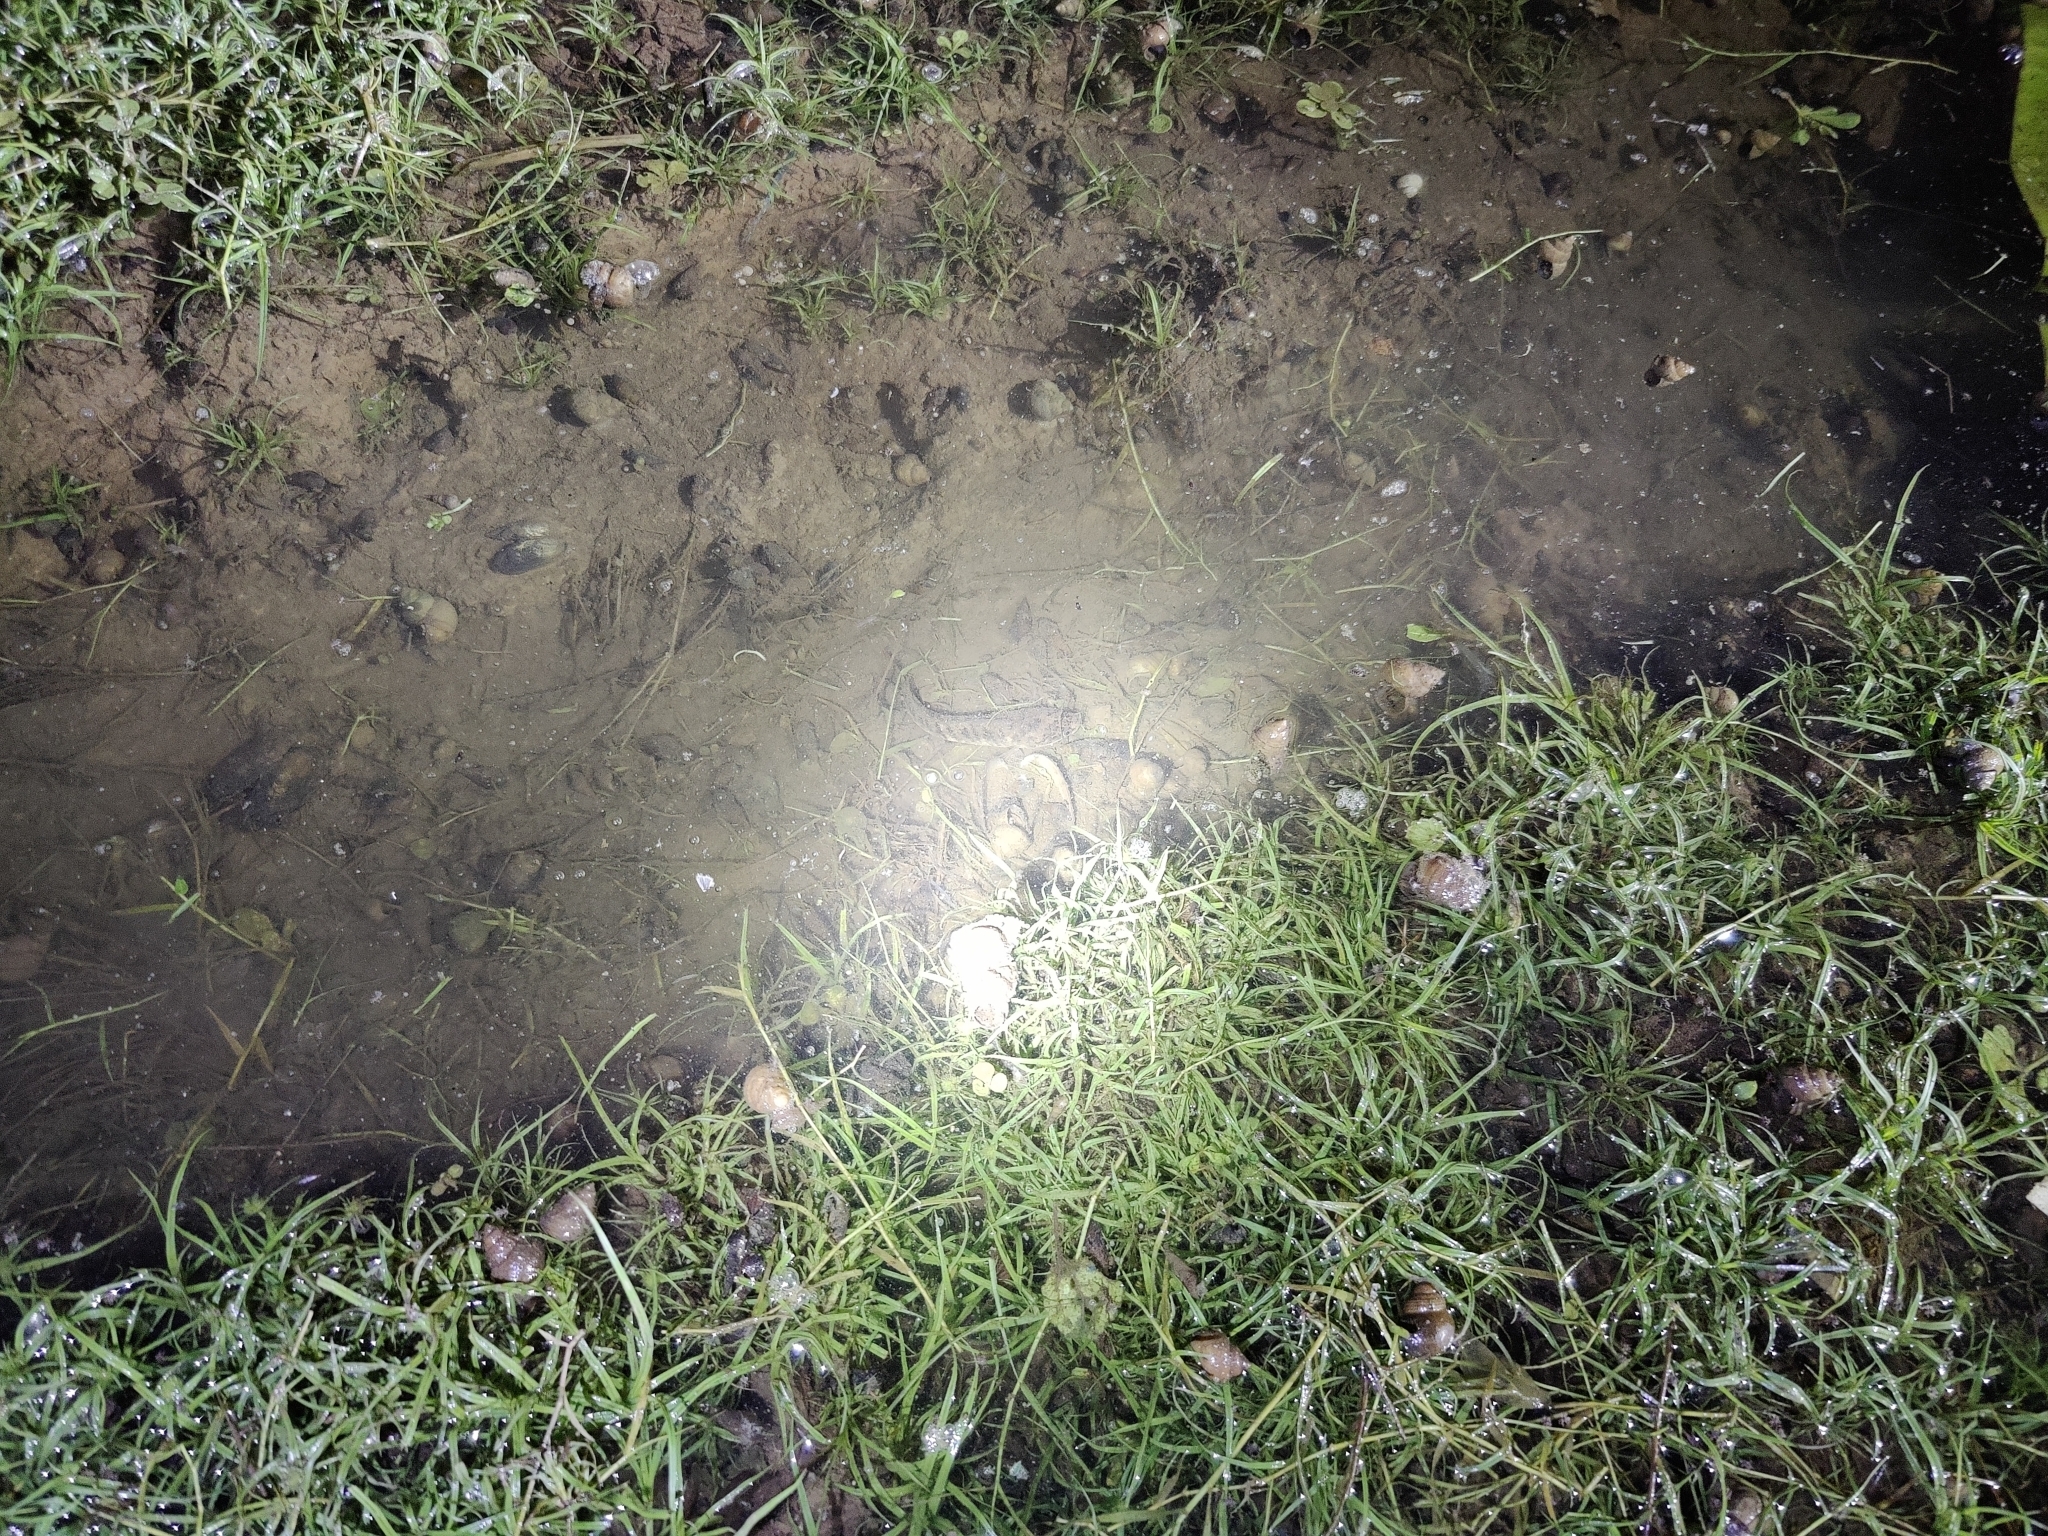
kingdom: Animalia
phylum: Chordata
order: Perciformes
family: Channidae
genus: Channa
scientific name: Channa punctata
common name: Spotted snakehead
